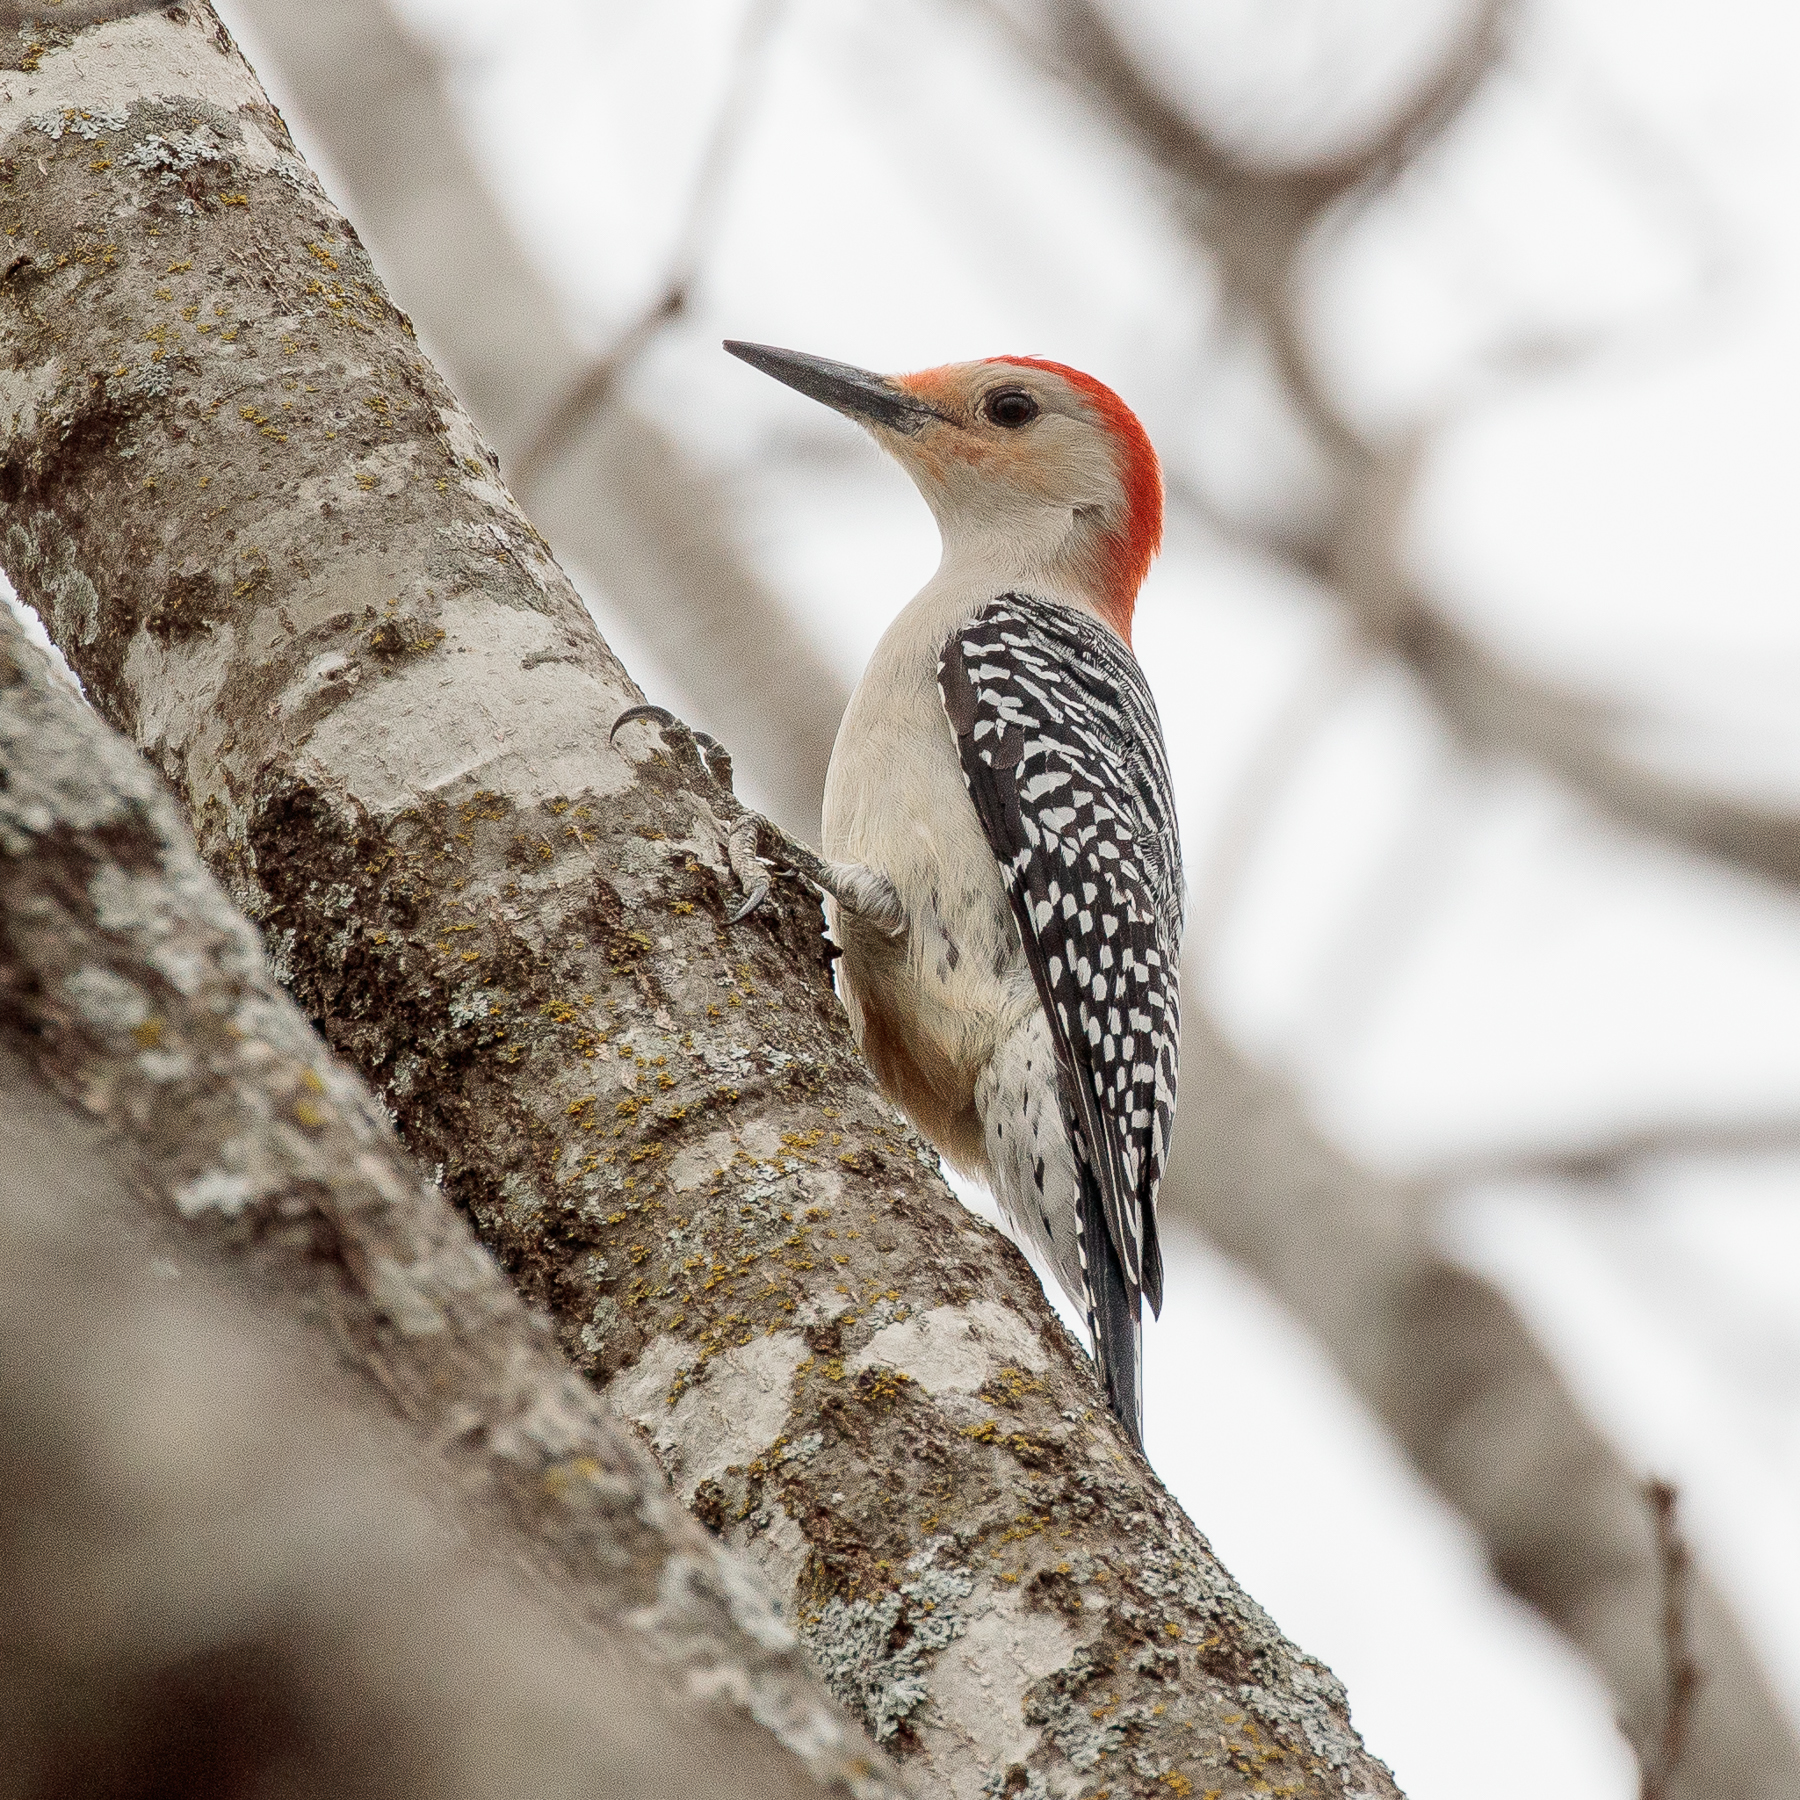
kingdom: Animalia
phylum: Chordata
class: Aves
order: Piciformes
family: Picidae
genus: Melanerpes
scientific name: Melanerpes carolinus
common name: Red-bellied woodpecker
